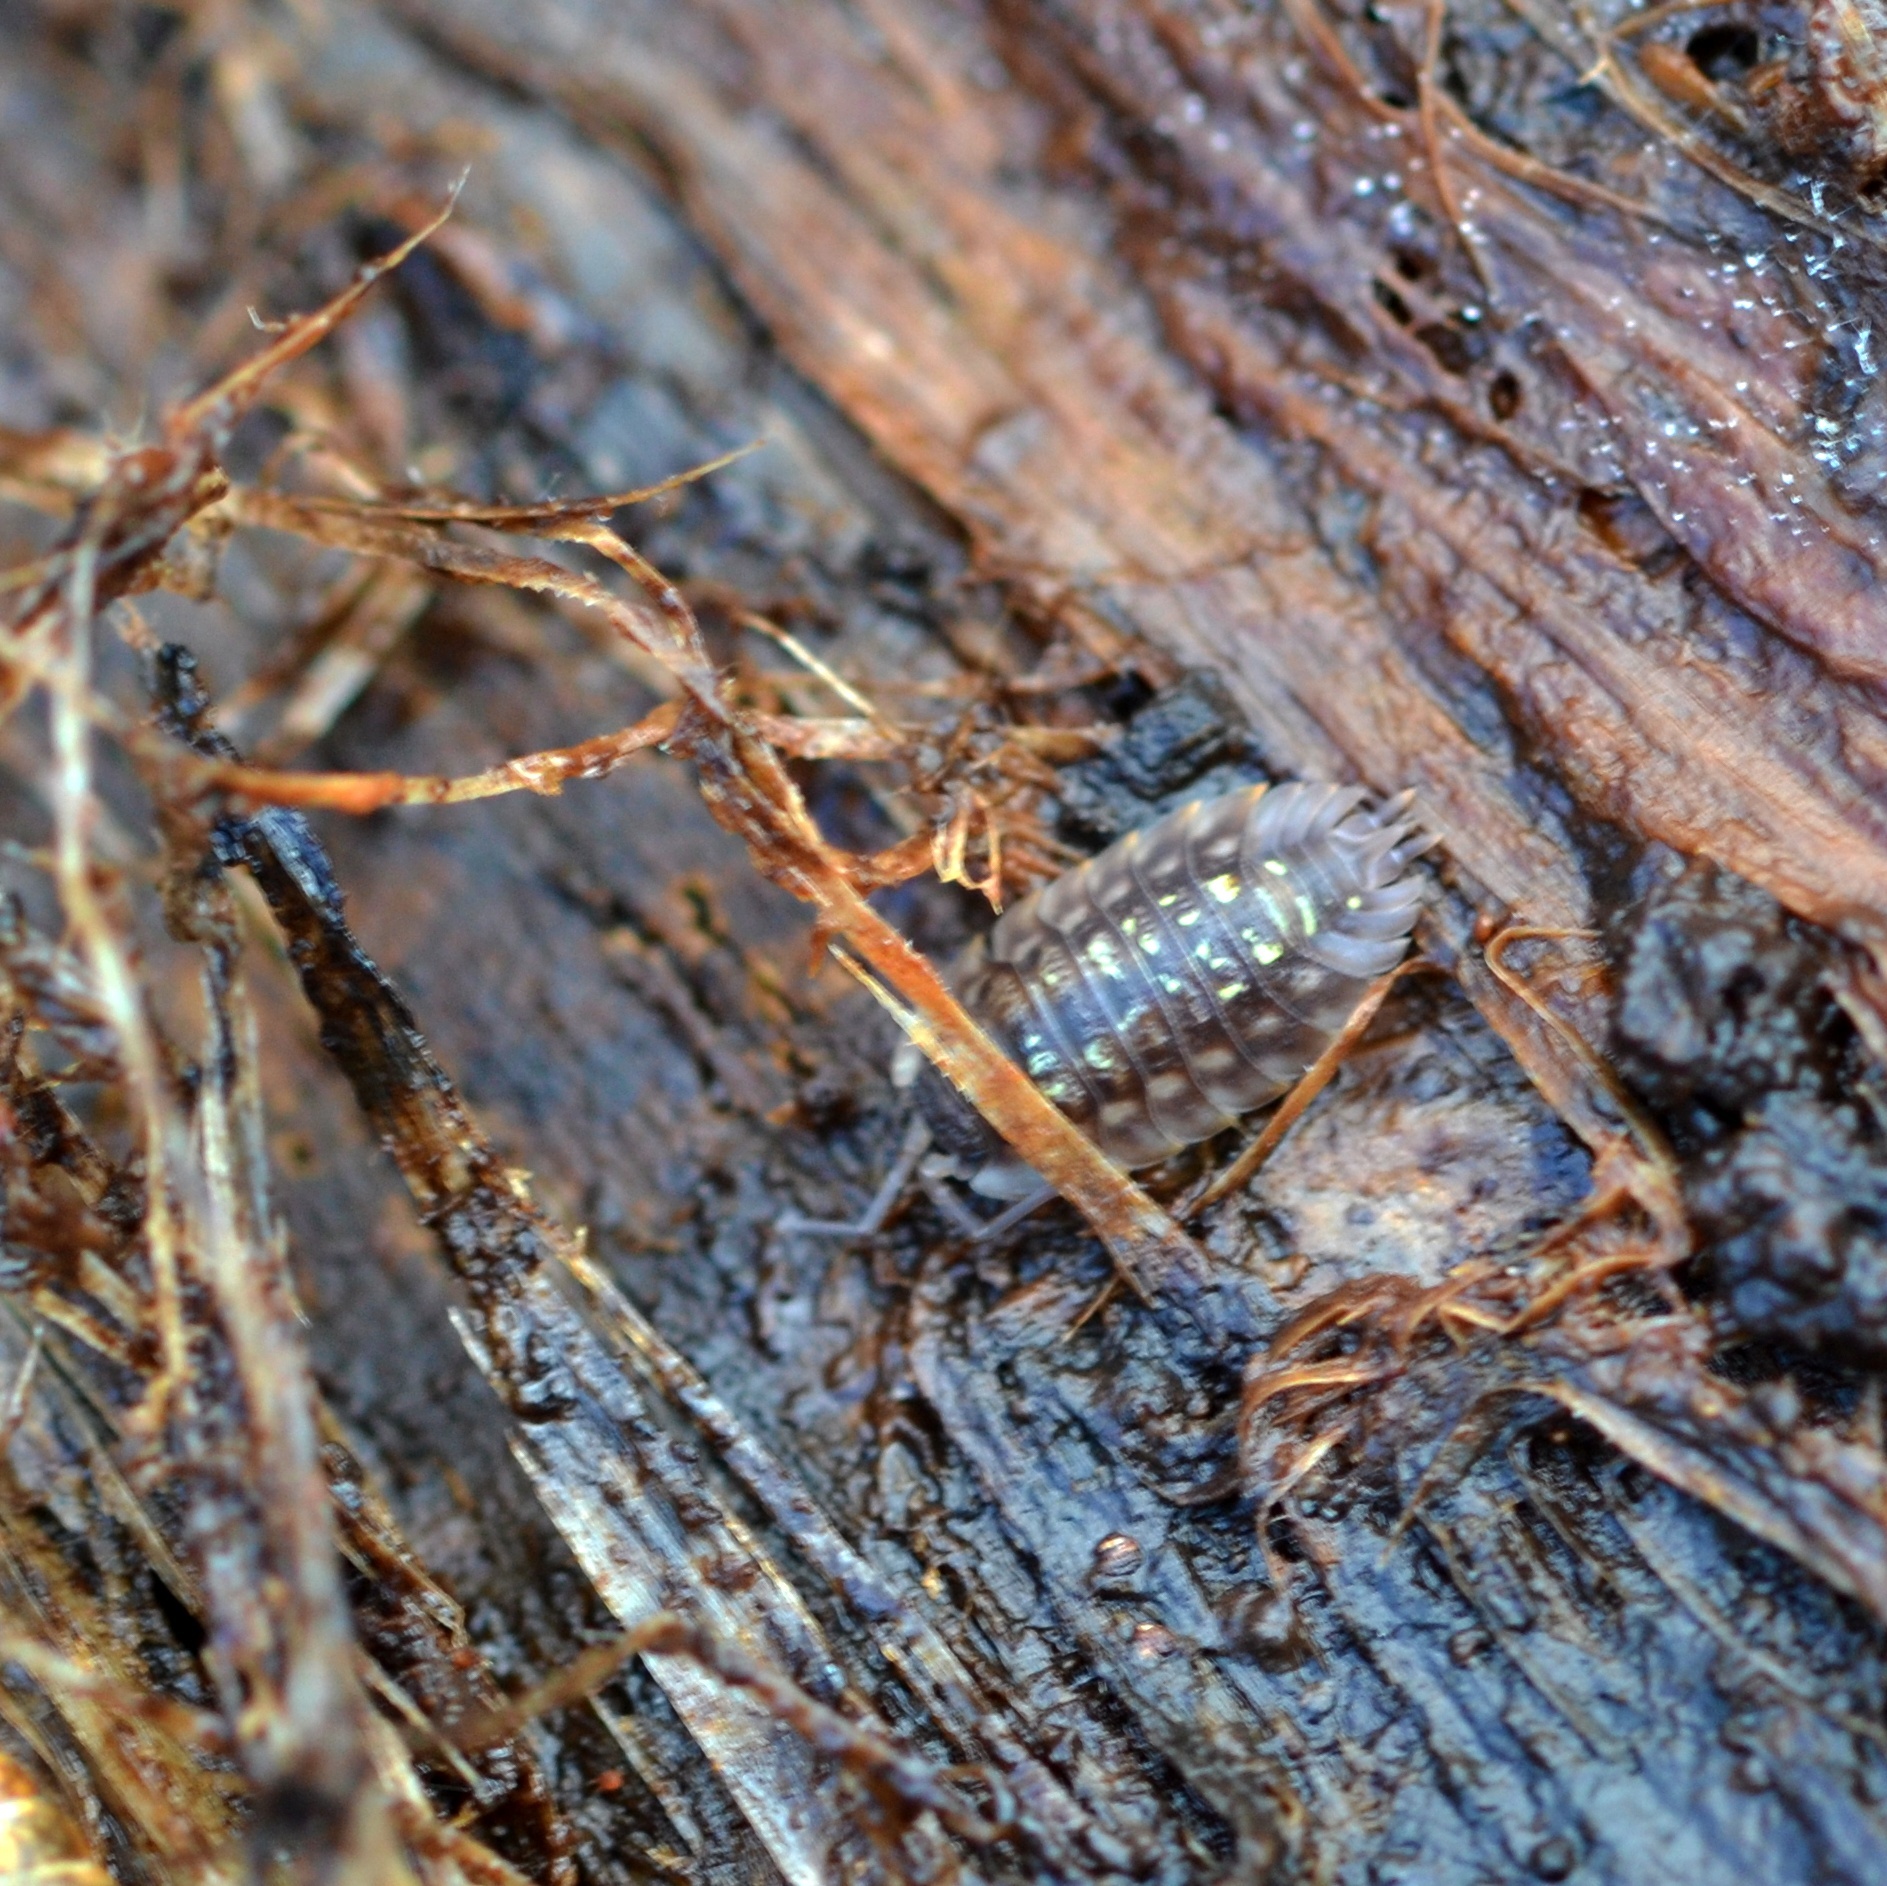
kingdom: Animalia
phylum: Arthropoda
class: Malacostraca
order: Isopoda
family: Oniscidae
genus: Oniscus
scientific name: Oniscus asellus
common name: Common shiny woodlouse
